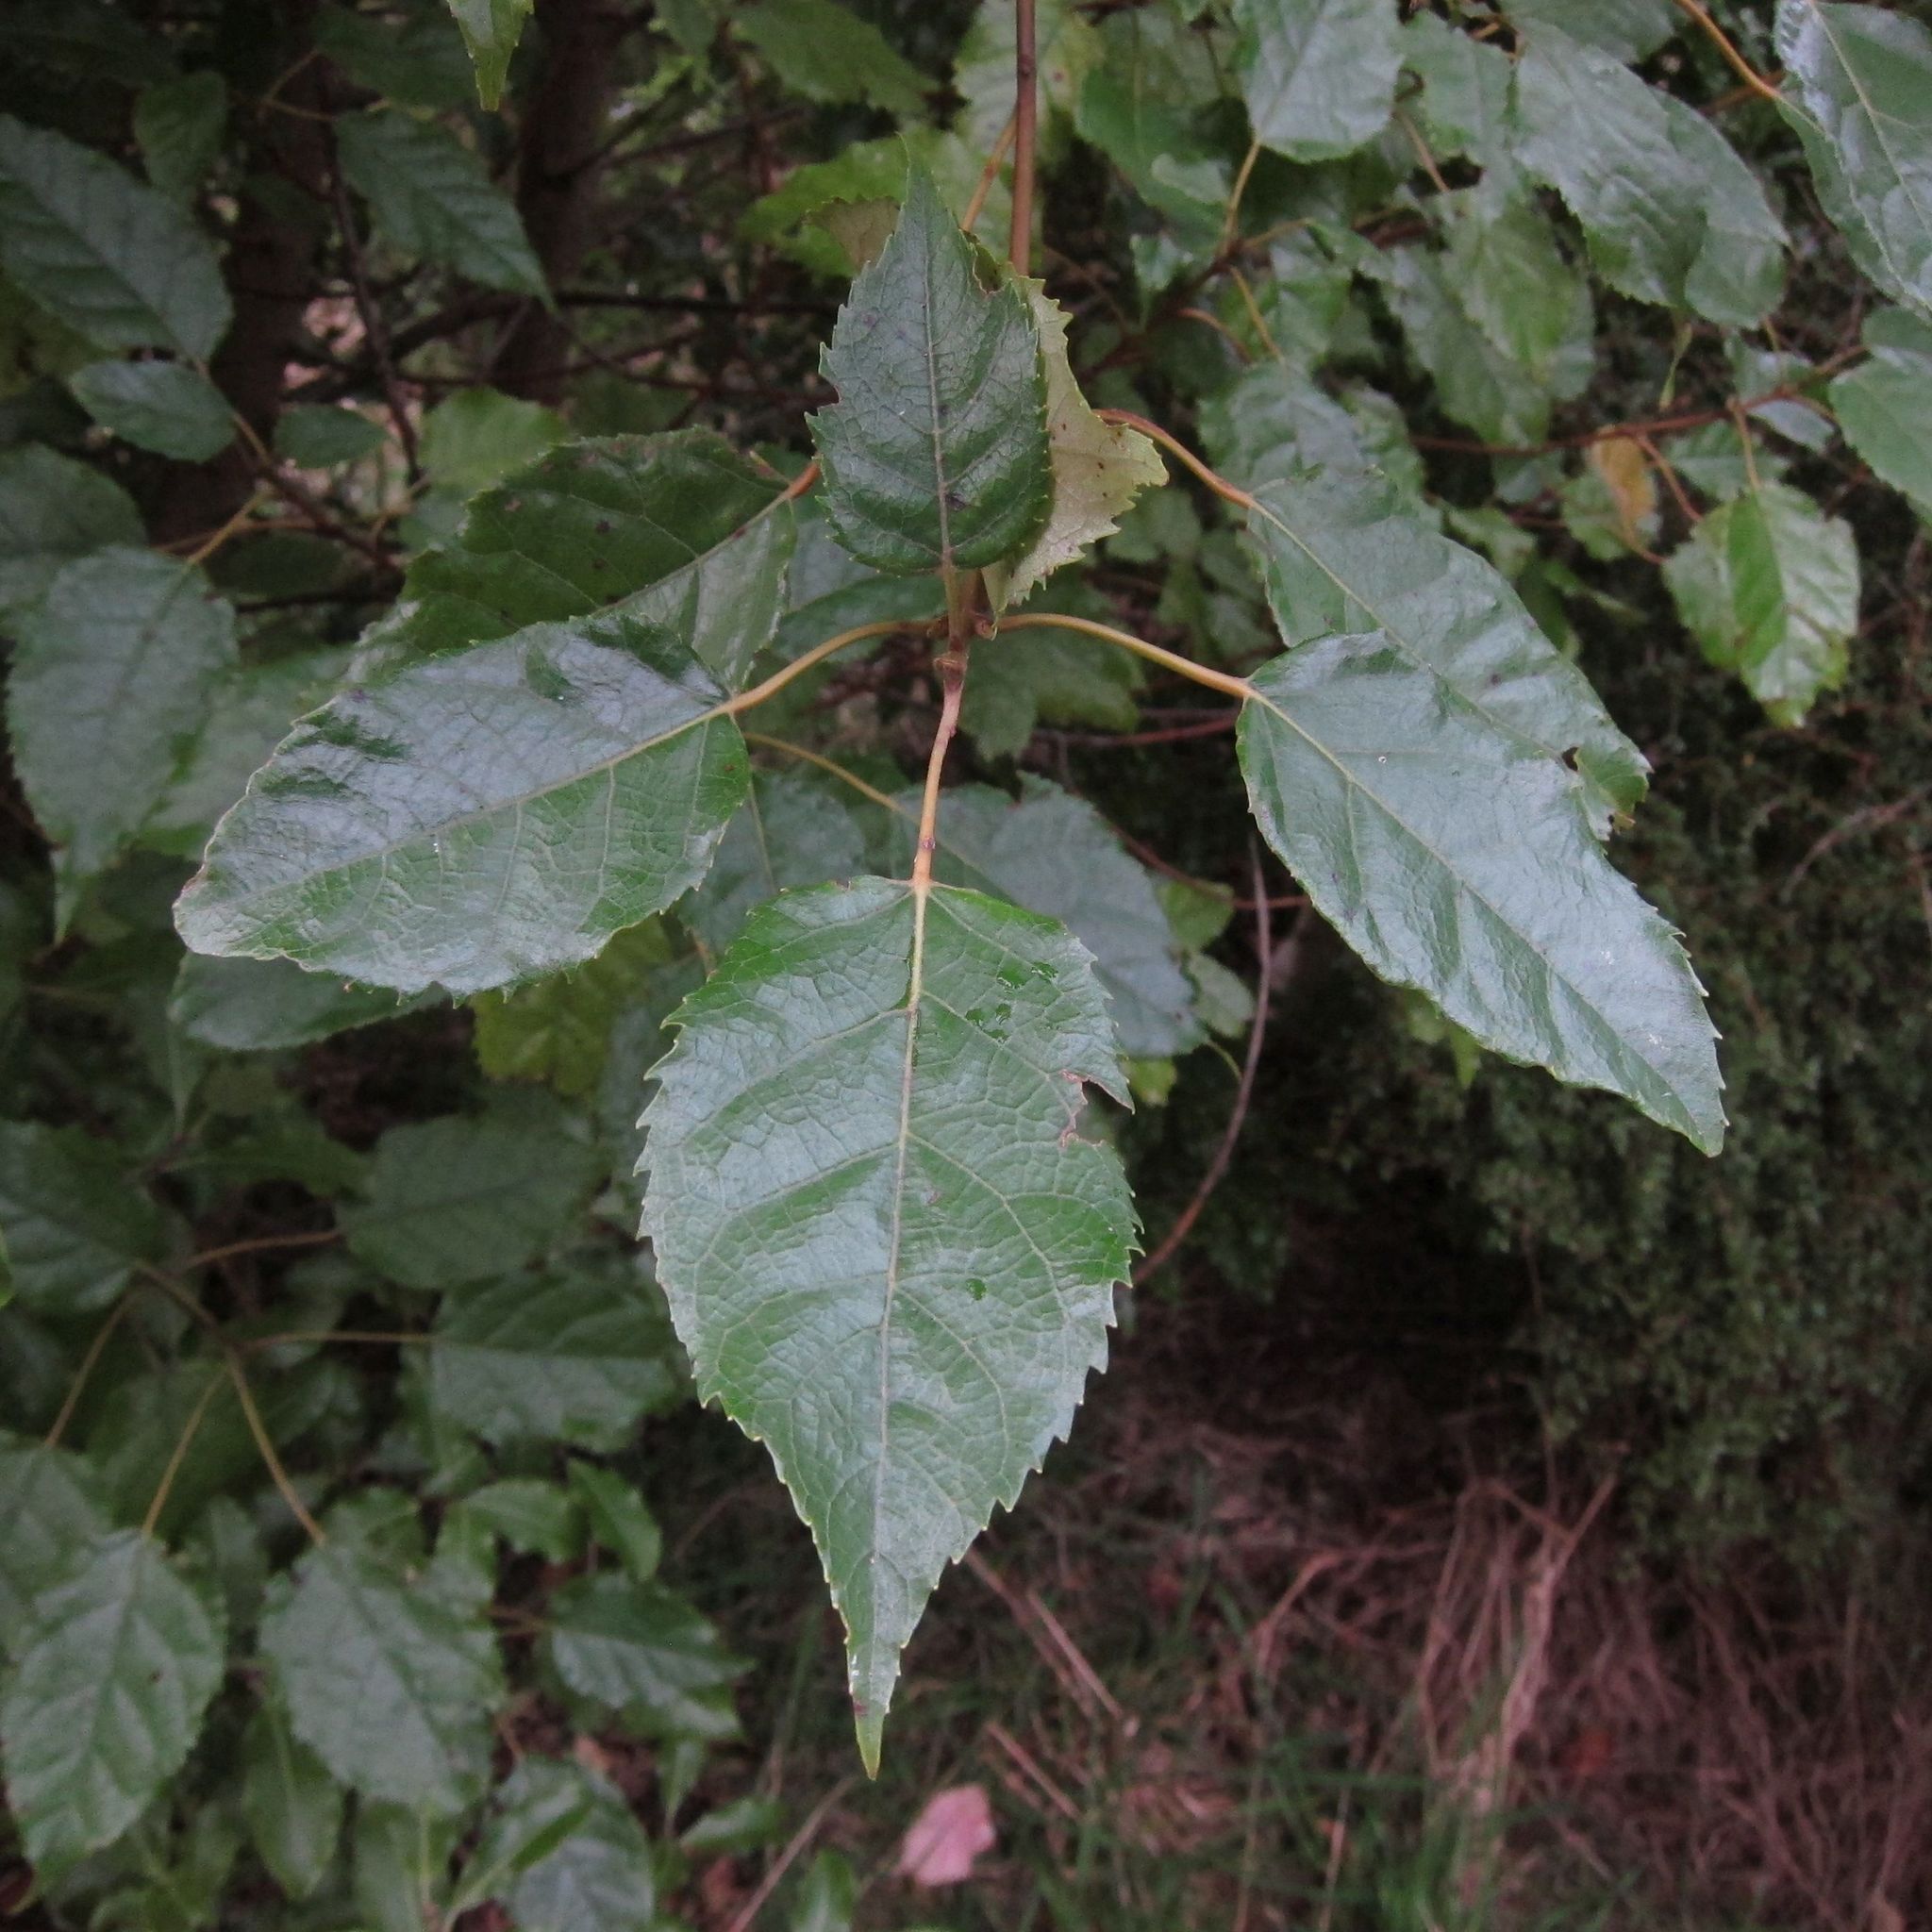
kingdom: Plantae
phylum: Tracheophyta
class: Magnoliopsida
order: Oxalidales
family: Elaeocarpaceae
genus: Aristotelia
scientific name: Aristotelia serrata
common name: New zealand wineberry
